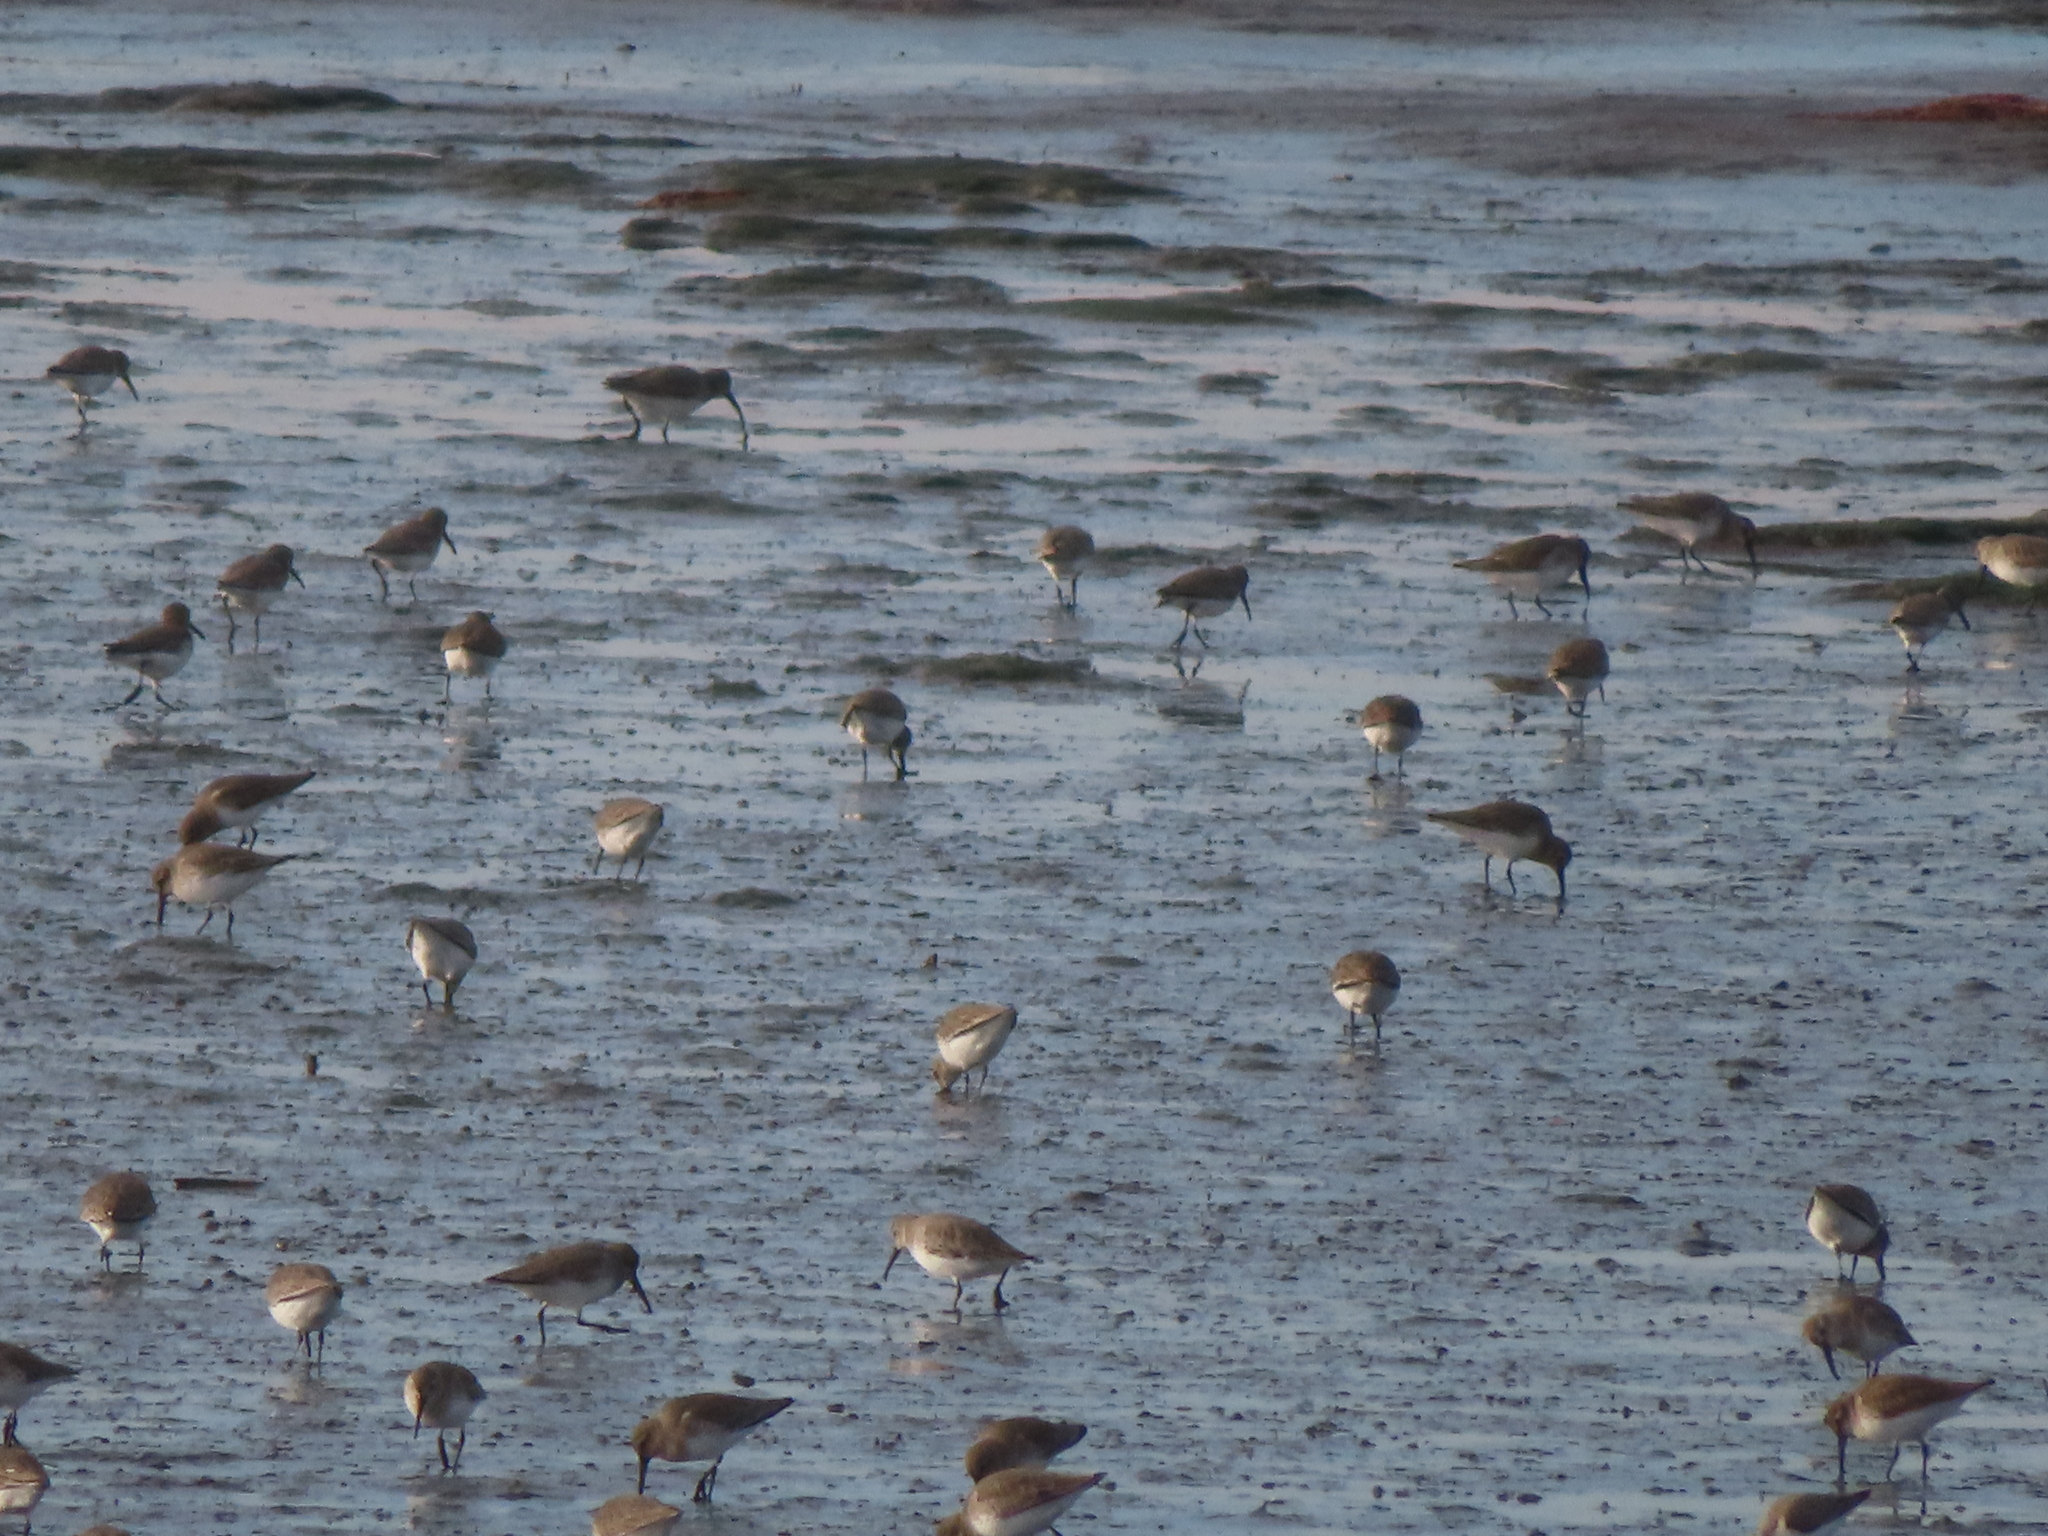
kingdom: Animalia
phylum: Chordata
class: Aves
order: Charadriiformes
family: Scolopacidae
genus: Calidris
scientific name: Calidris alpina
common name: Dunlin
